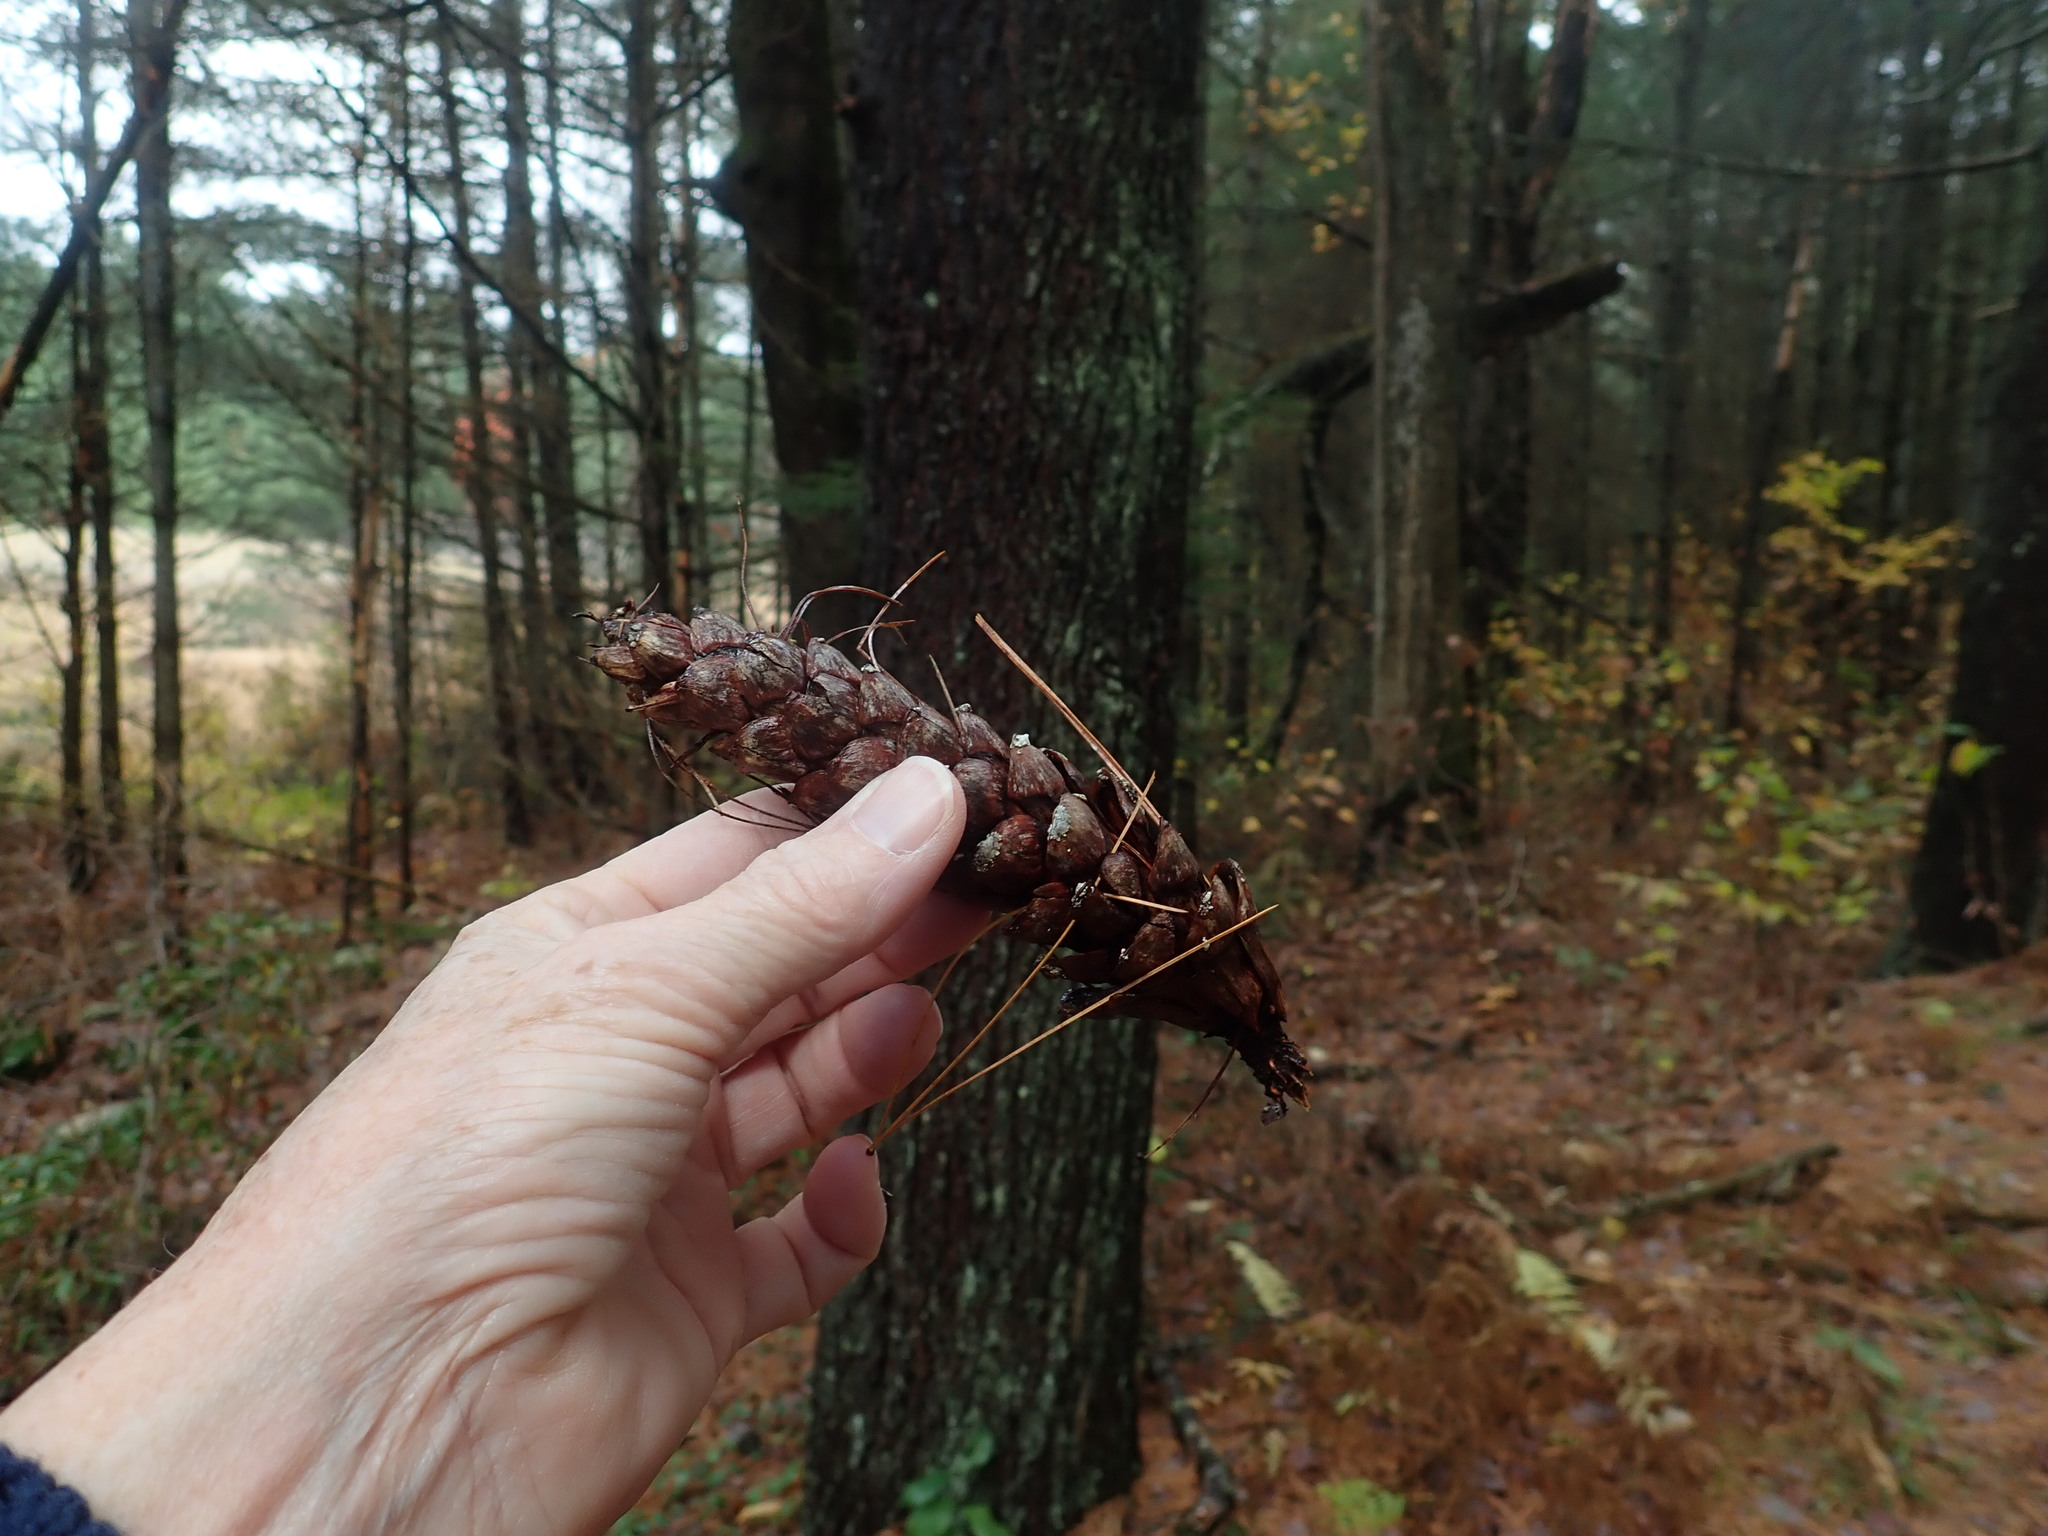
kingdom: Plantae
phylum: Tracheophyta
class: Pinopsida
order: Pinales
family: Pinaceae
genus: Pinus
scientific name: Pinus strobus
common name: Weymouth pine
